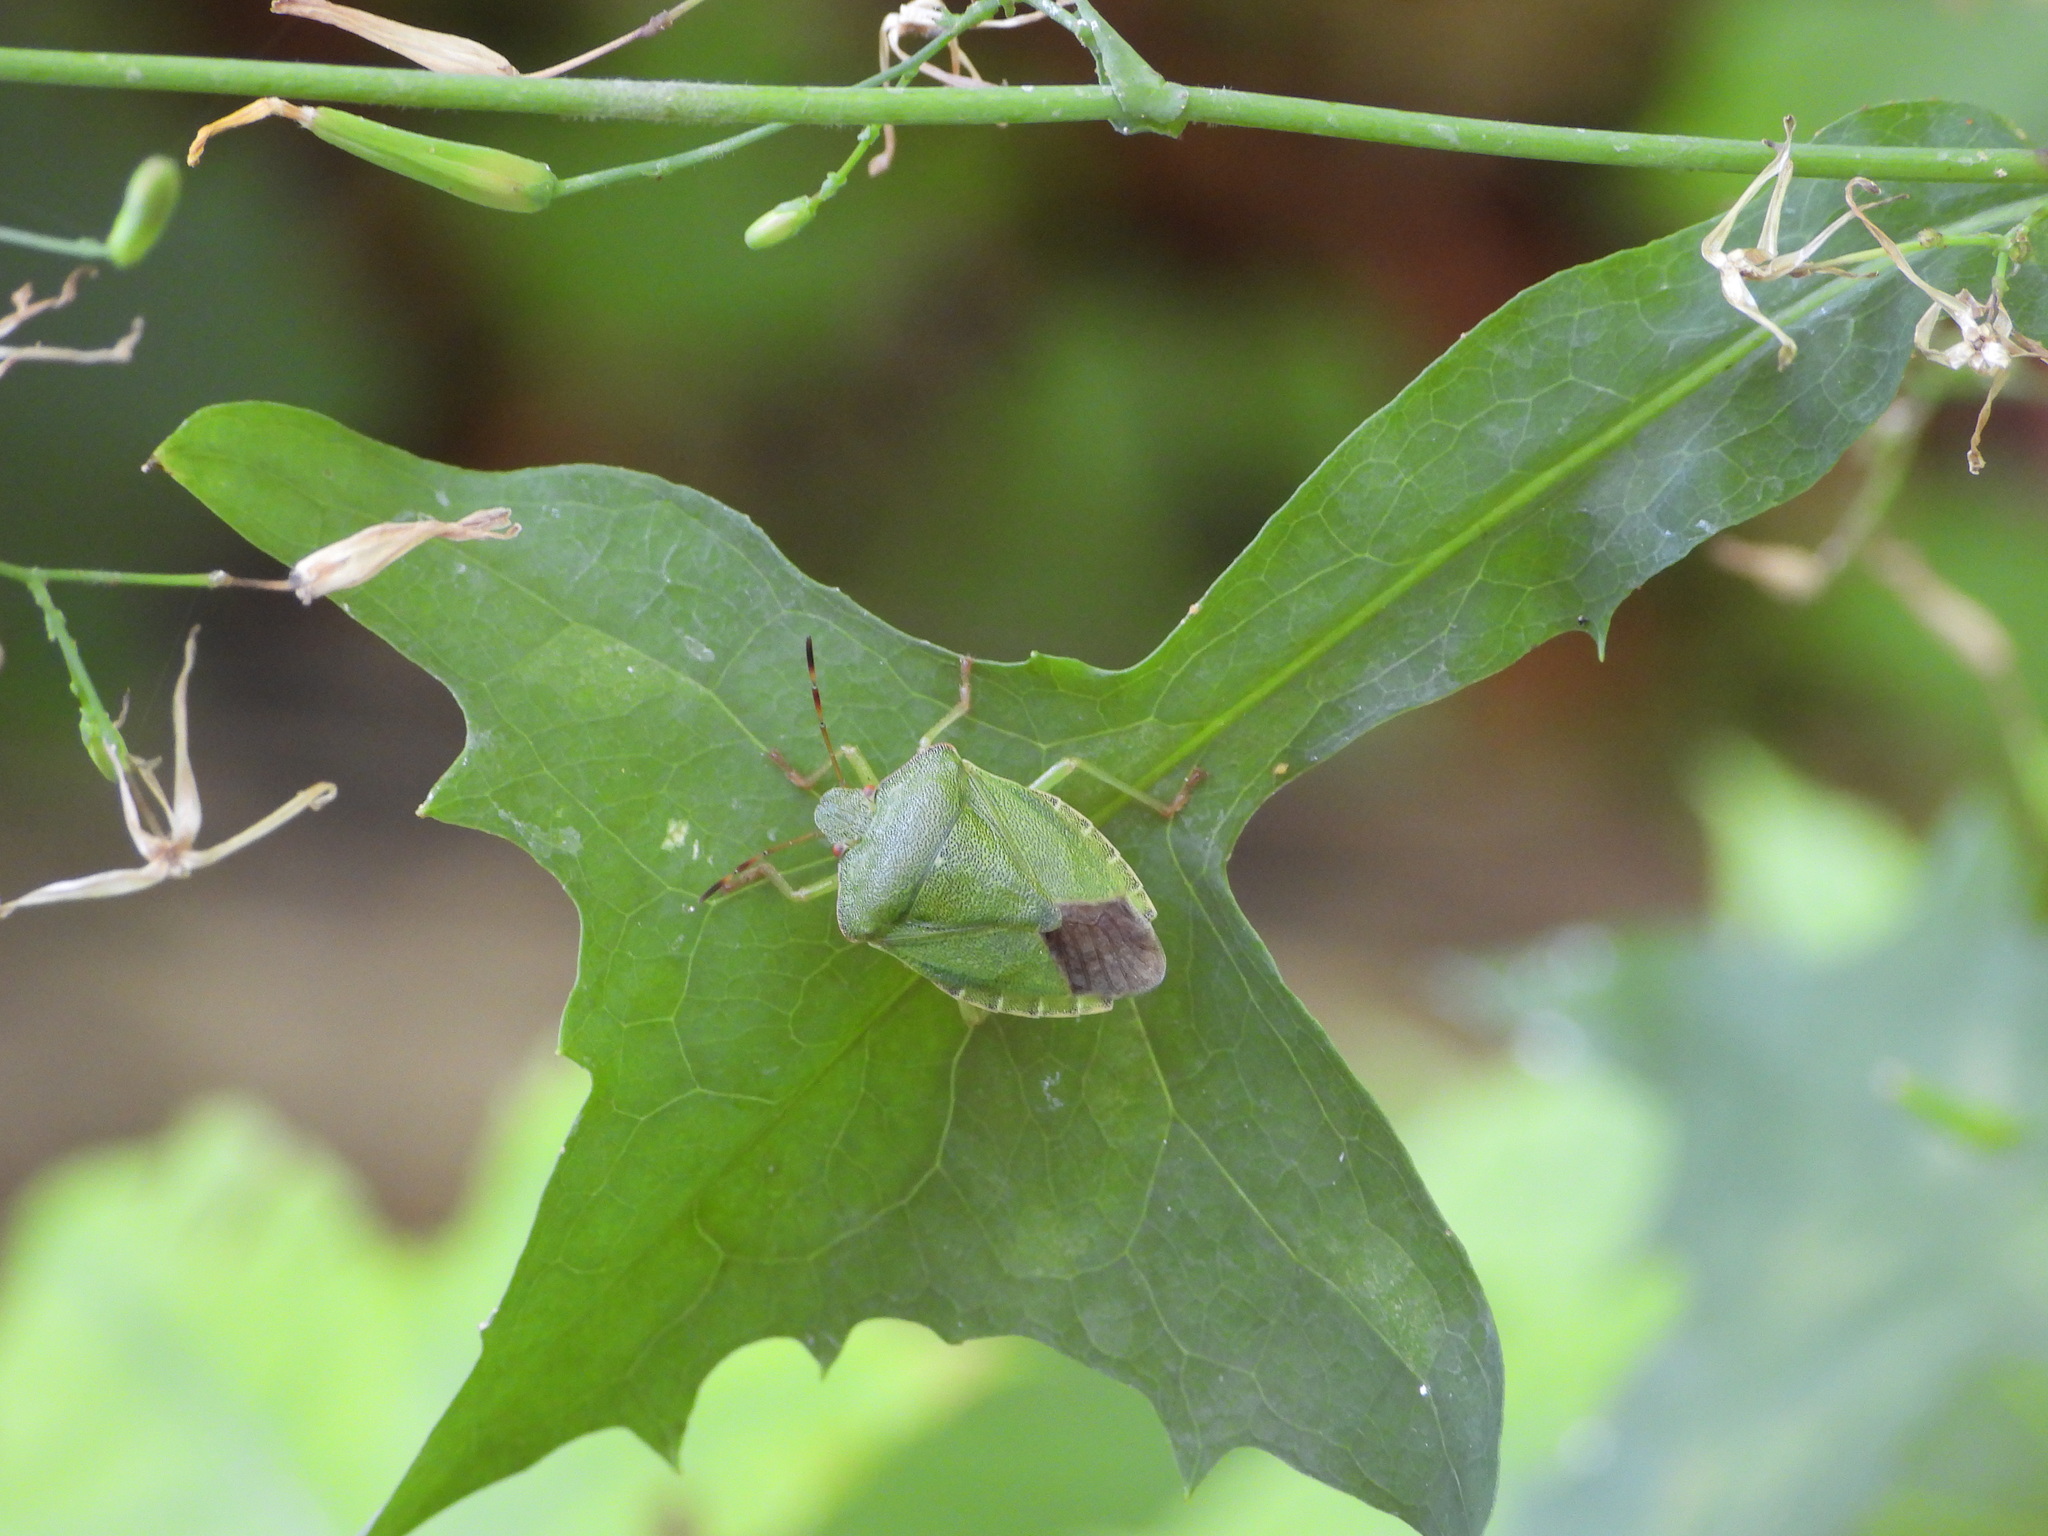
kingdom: Animalia
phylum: Arthropoda
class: Insecta
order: Hemiptera
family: Pentatomidae
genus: Palomena
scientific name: Palomena prasina
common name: Green shieldbug
